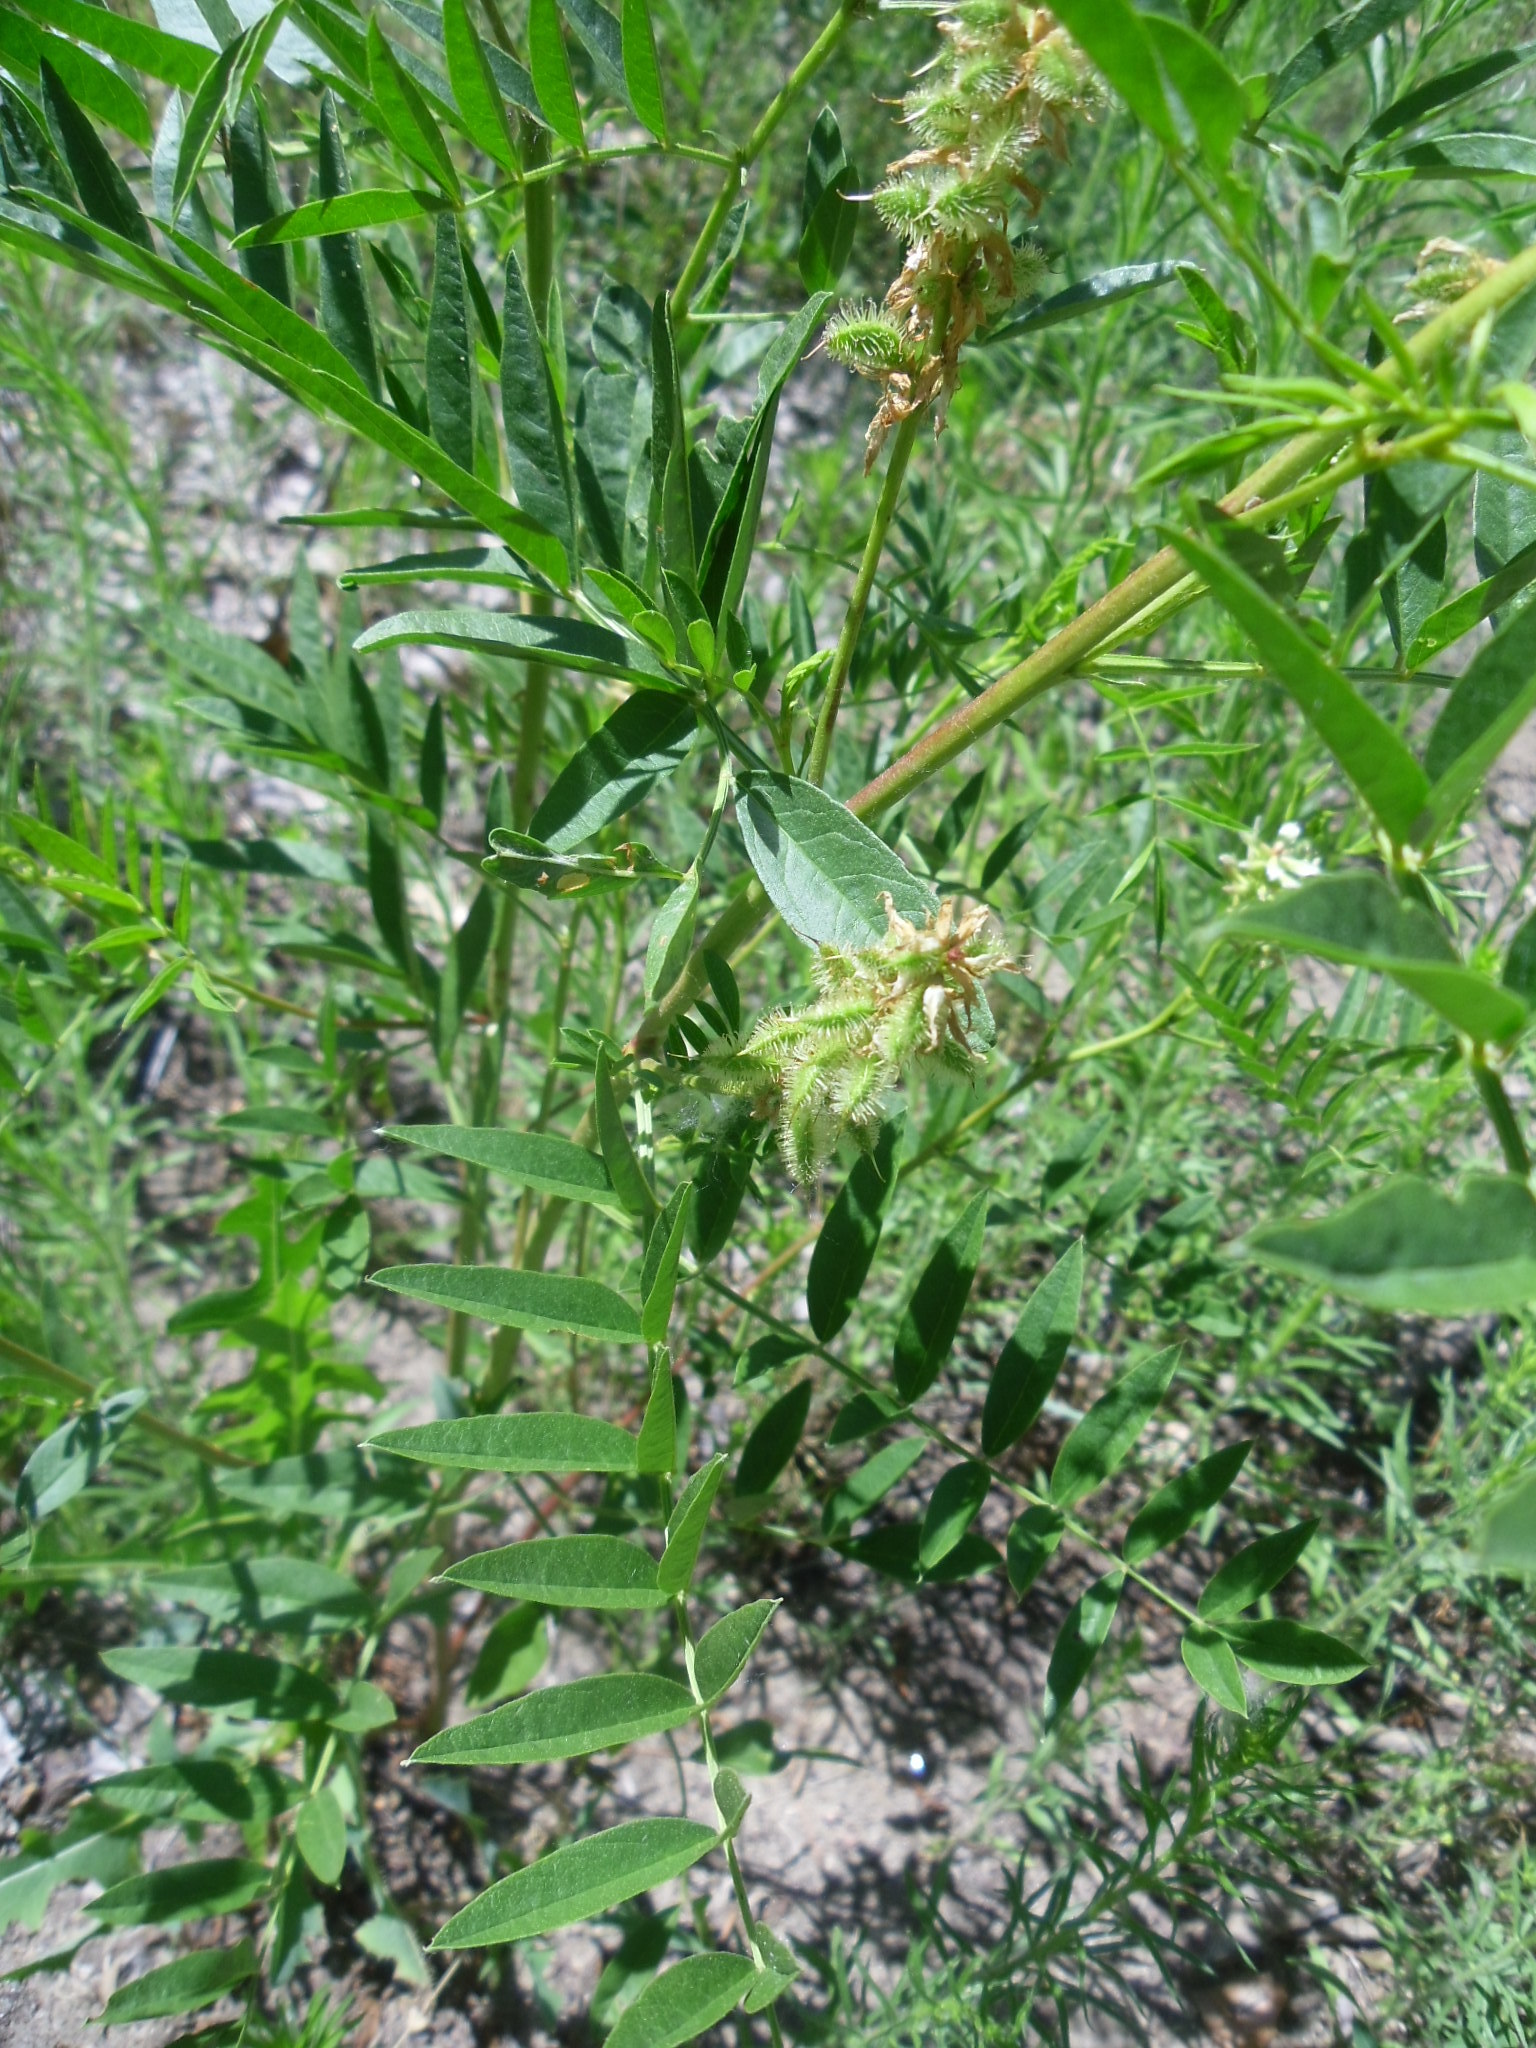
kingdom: Plantae
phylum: Tracheophyta
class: Magnoliopsida
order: Fabales
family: Fabaceae
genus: Glycyrrhiza
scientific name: Glycyrrhiza lepidota
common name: American liquorice
